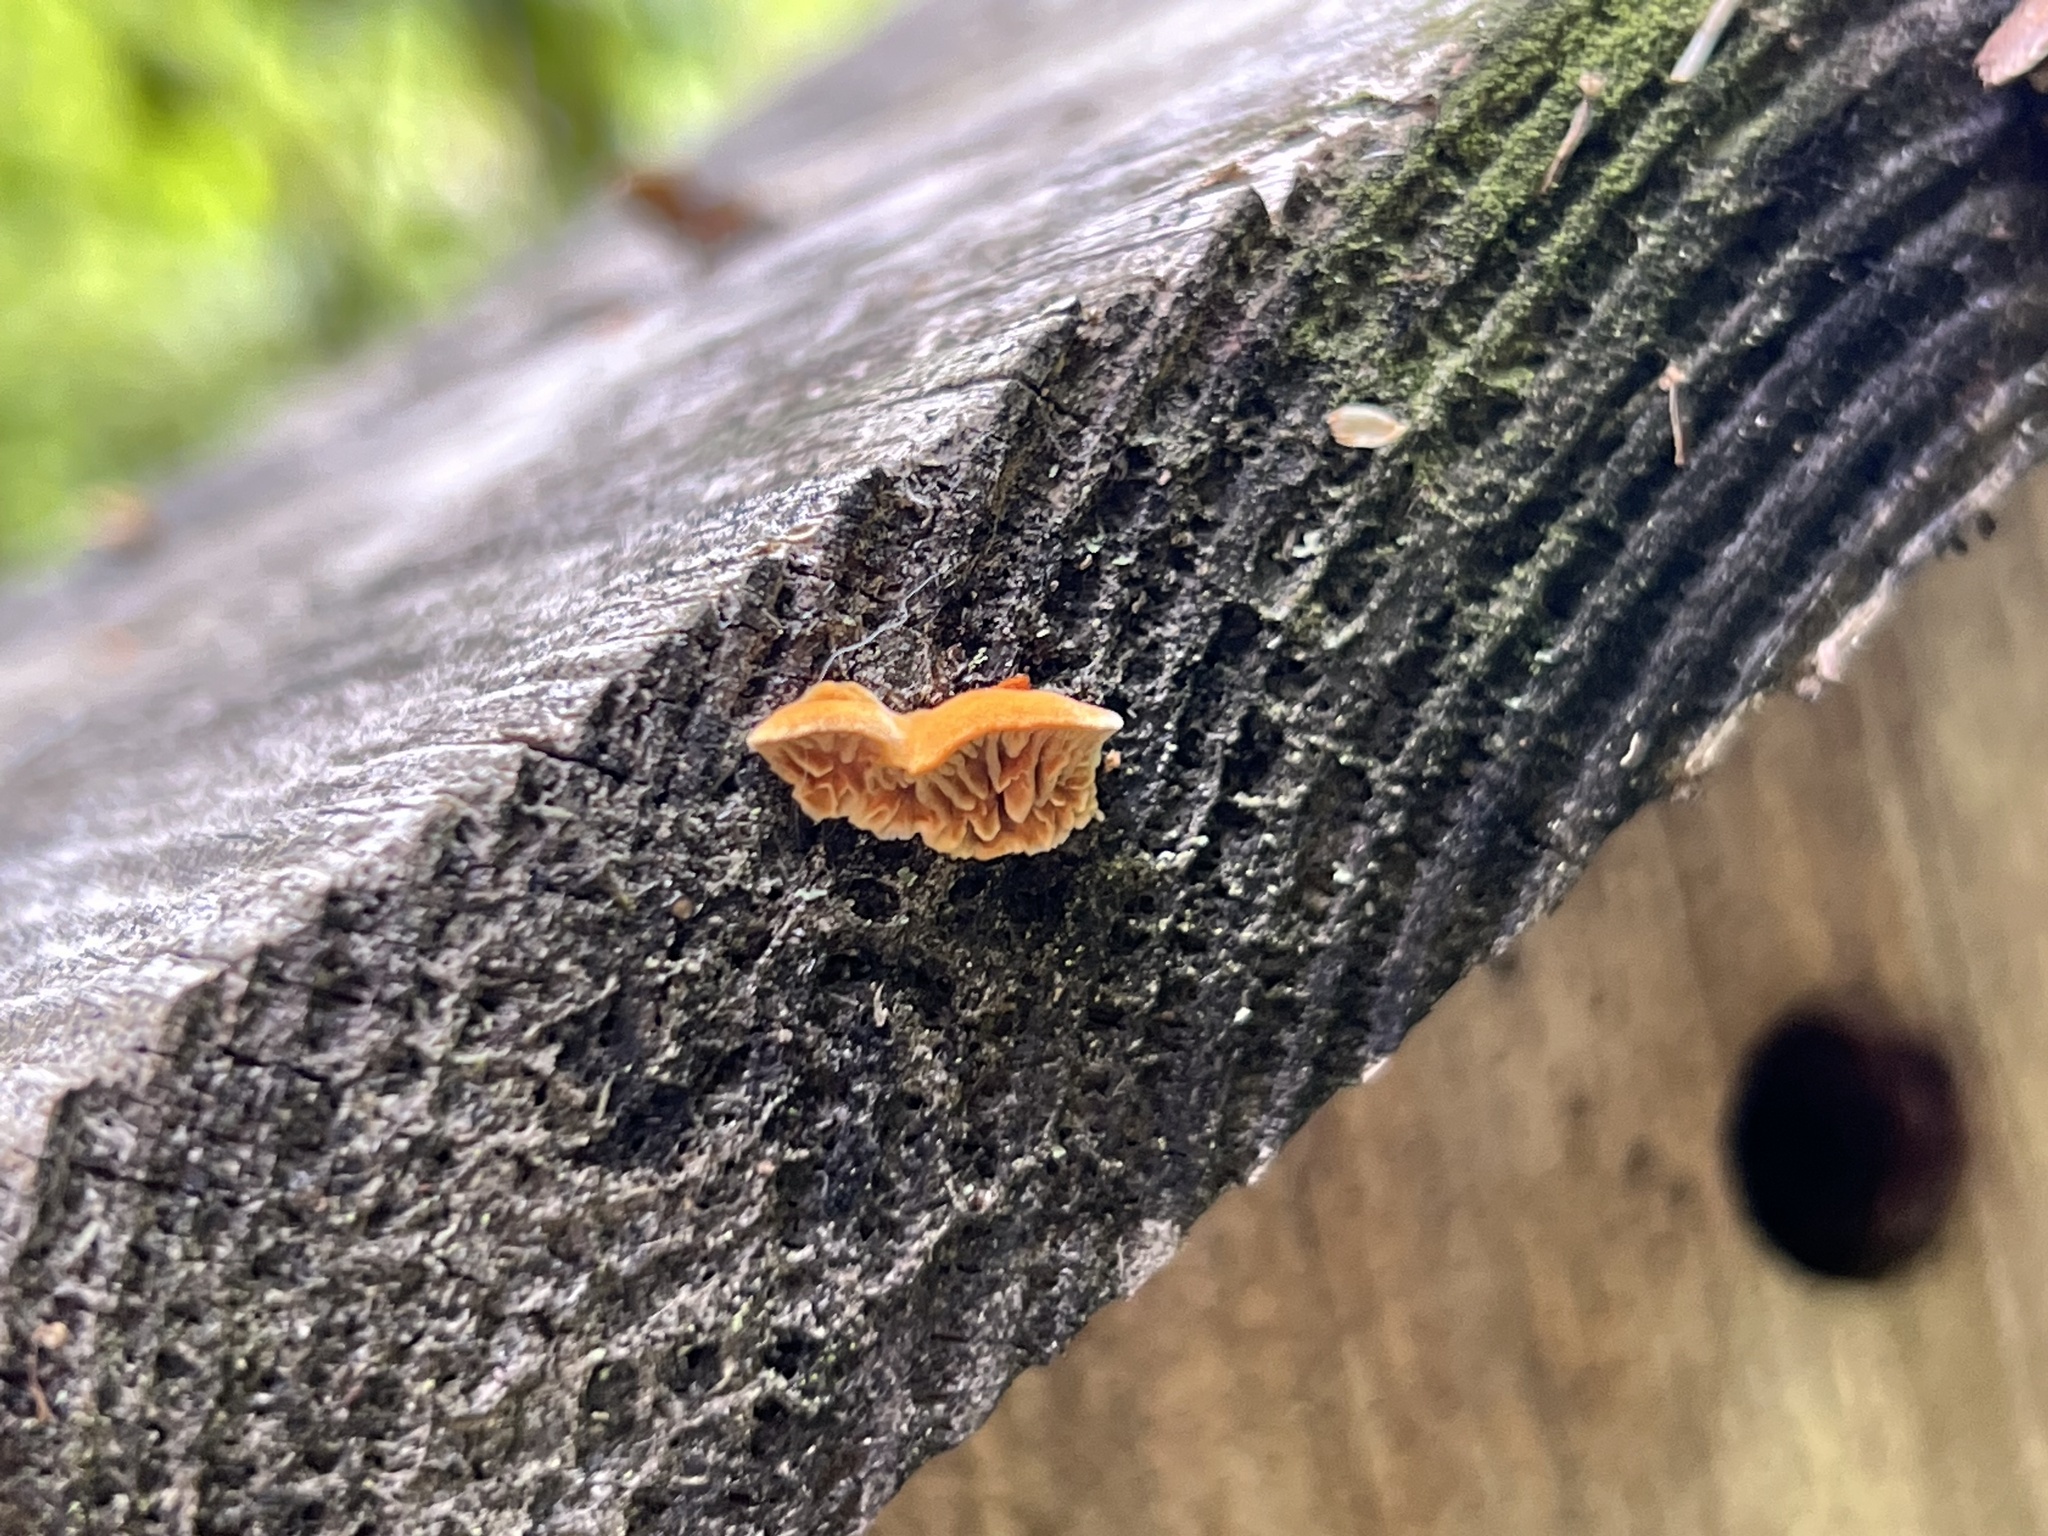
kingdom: Fungi
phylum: Basidiomycota
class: Agaricomycetes
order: Gloeophyllales
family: Gloeophyllaceae
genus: Gloeophyllum
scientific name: Gloeophyllum sepiarium
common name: Conifer mazegill
